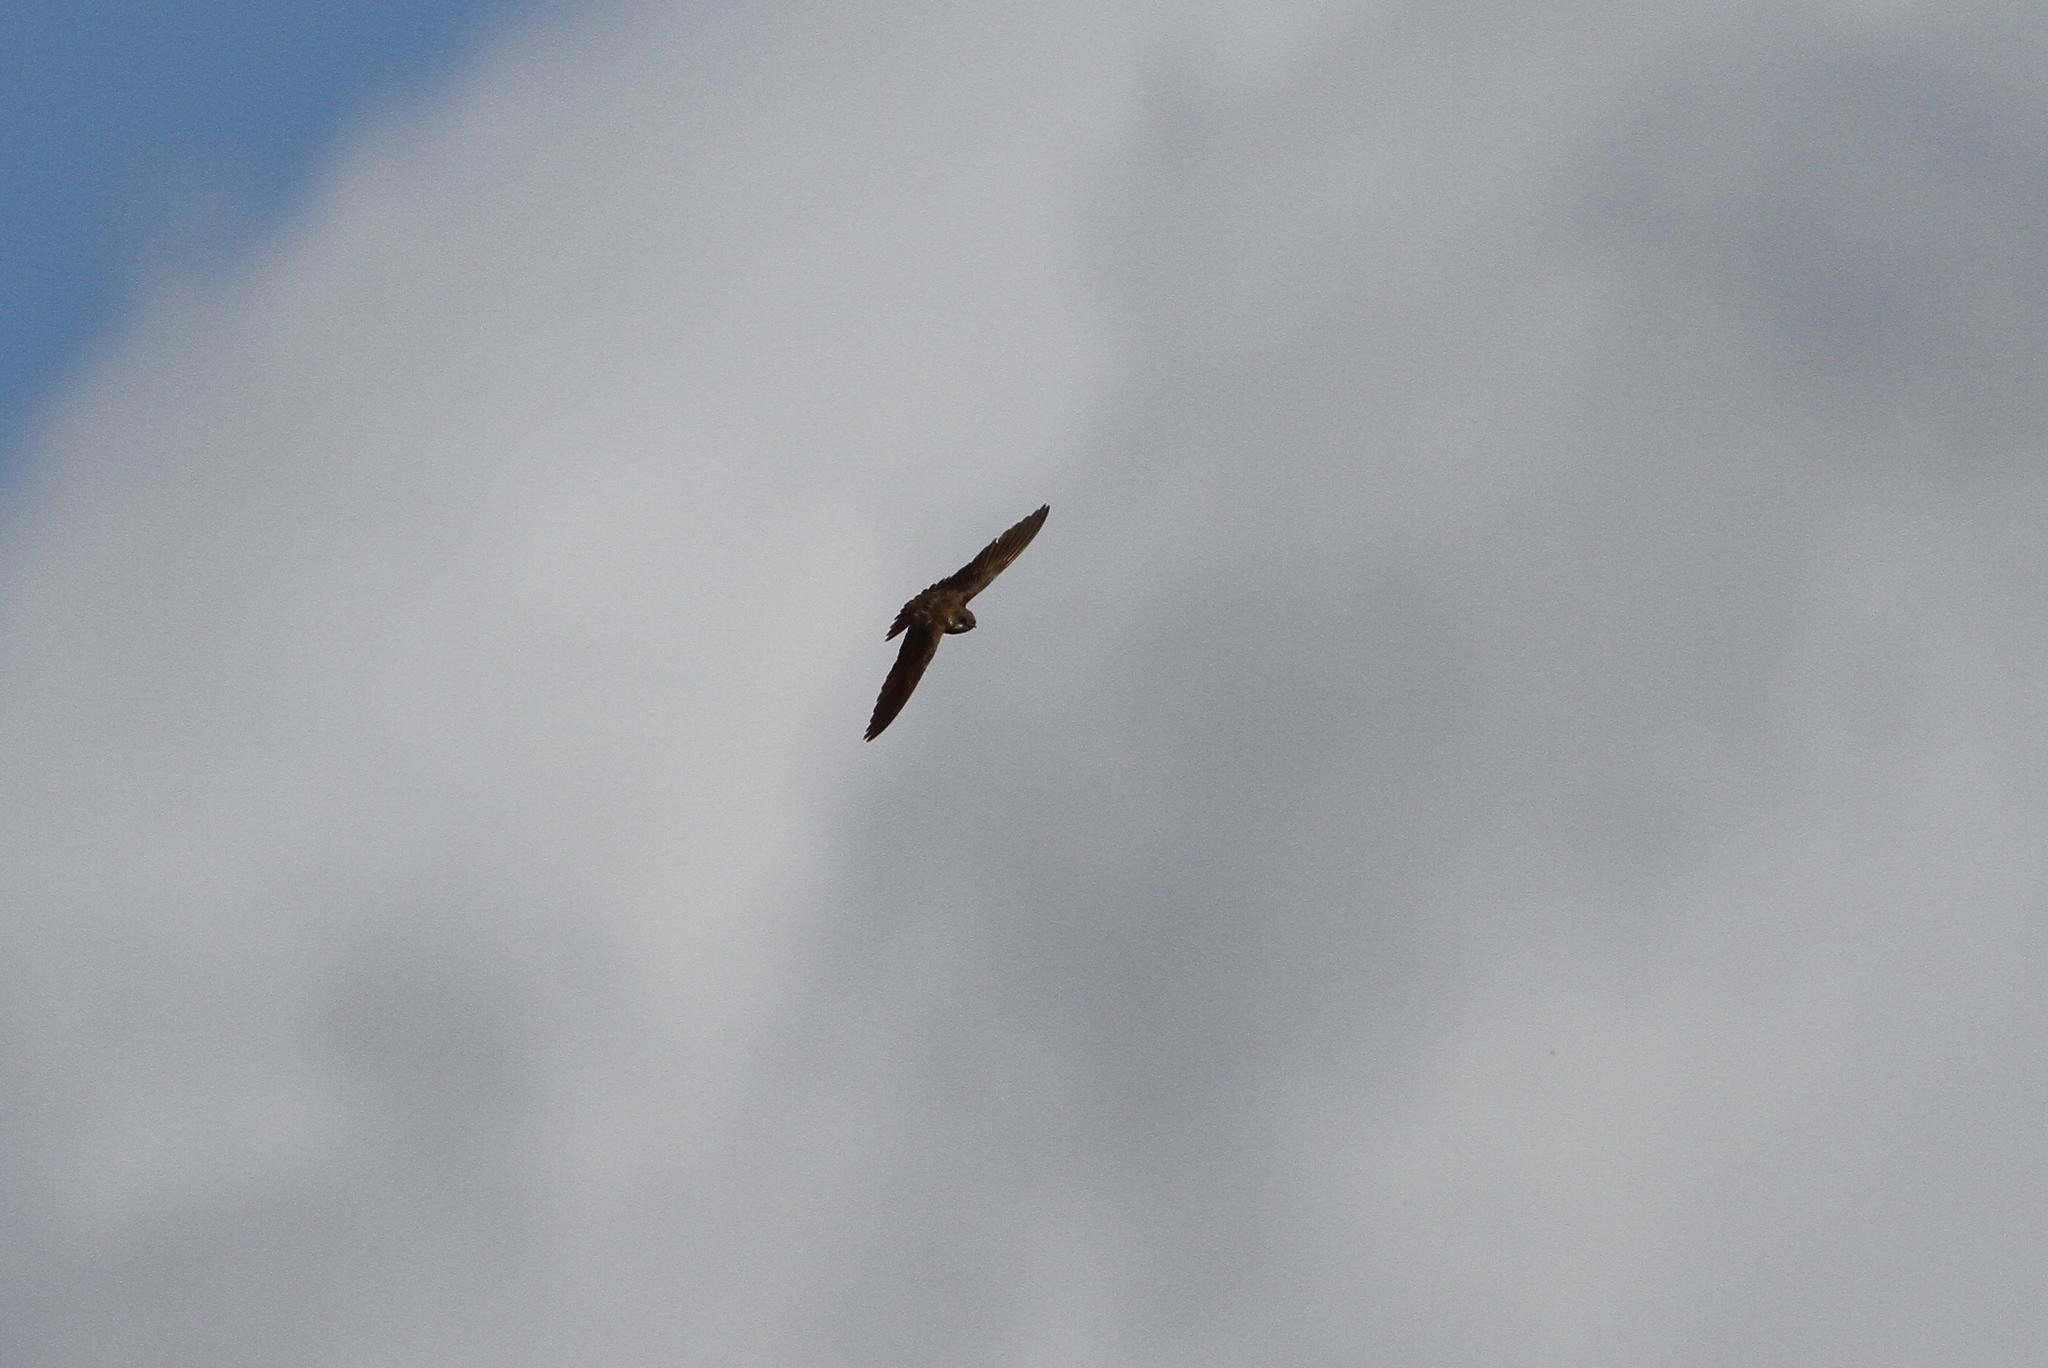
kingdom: Animalia
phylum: Chordata
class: Aves
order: Passeriformes
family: Hirundinidae
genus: Riparia
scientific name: Riparia riparia
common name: Sand martin
